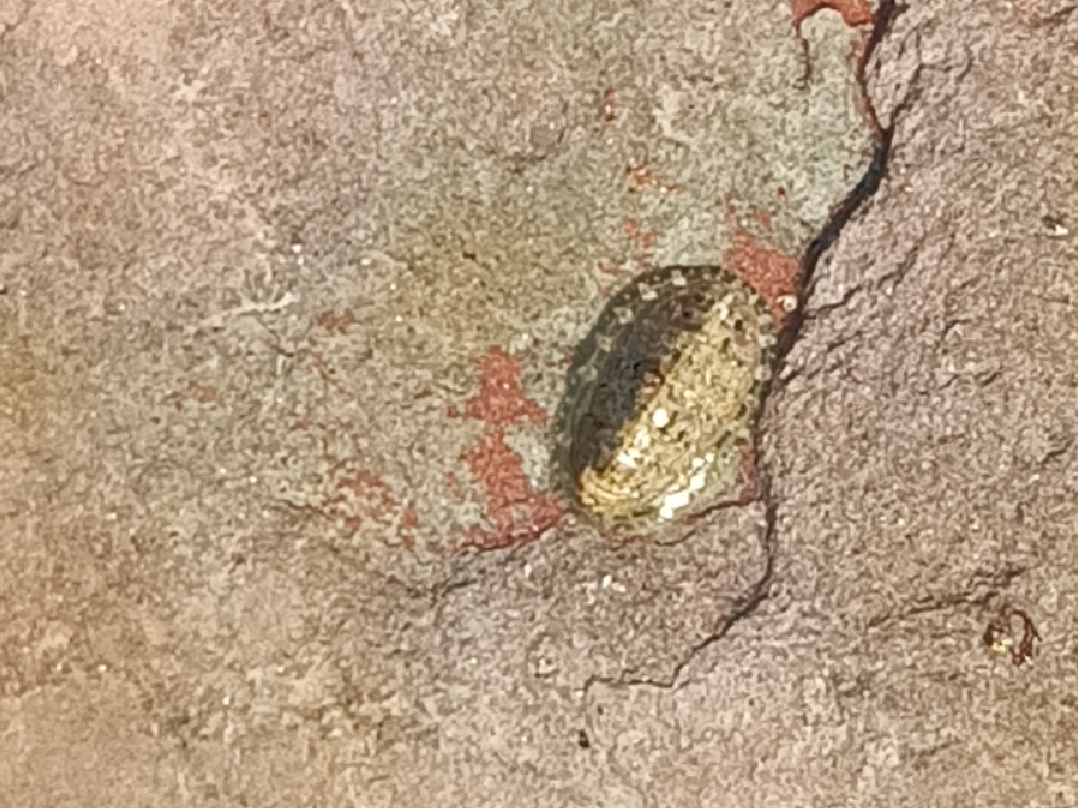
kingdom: Animalia
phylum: Mollusca
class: Polyplacophora
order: Chitonida
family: Tonicellidae
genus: Lepidochitona
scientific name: Lepidochitona cinerea
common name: Cinereous chiton
